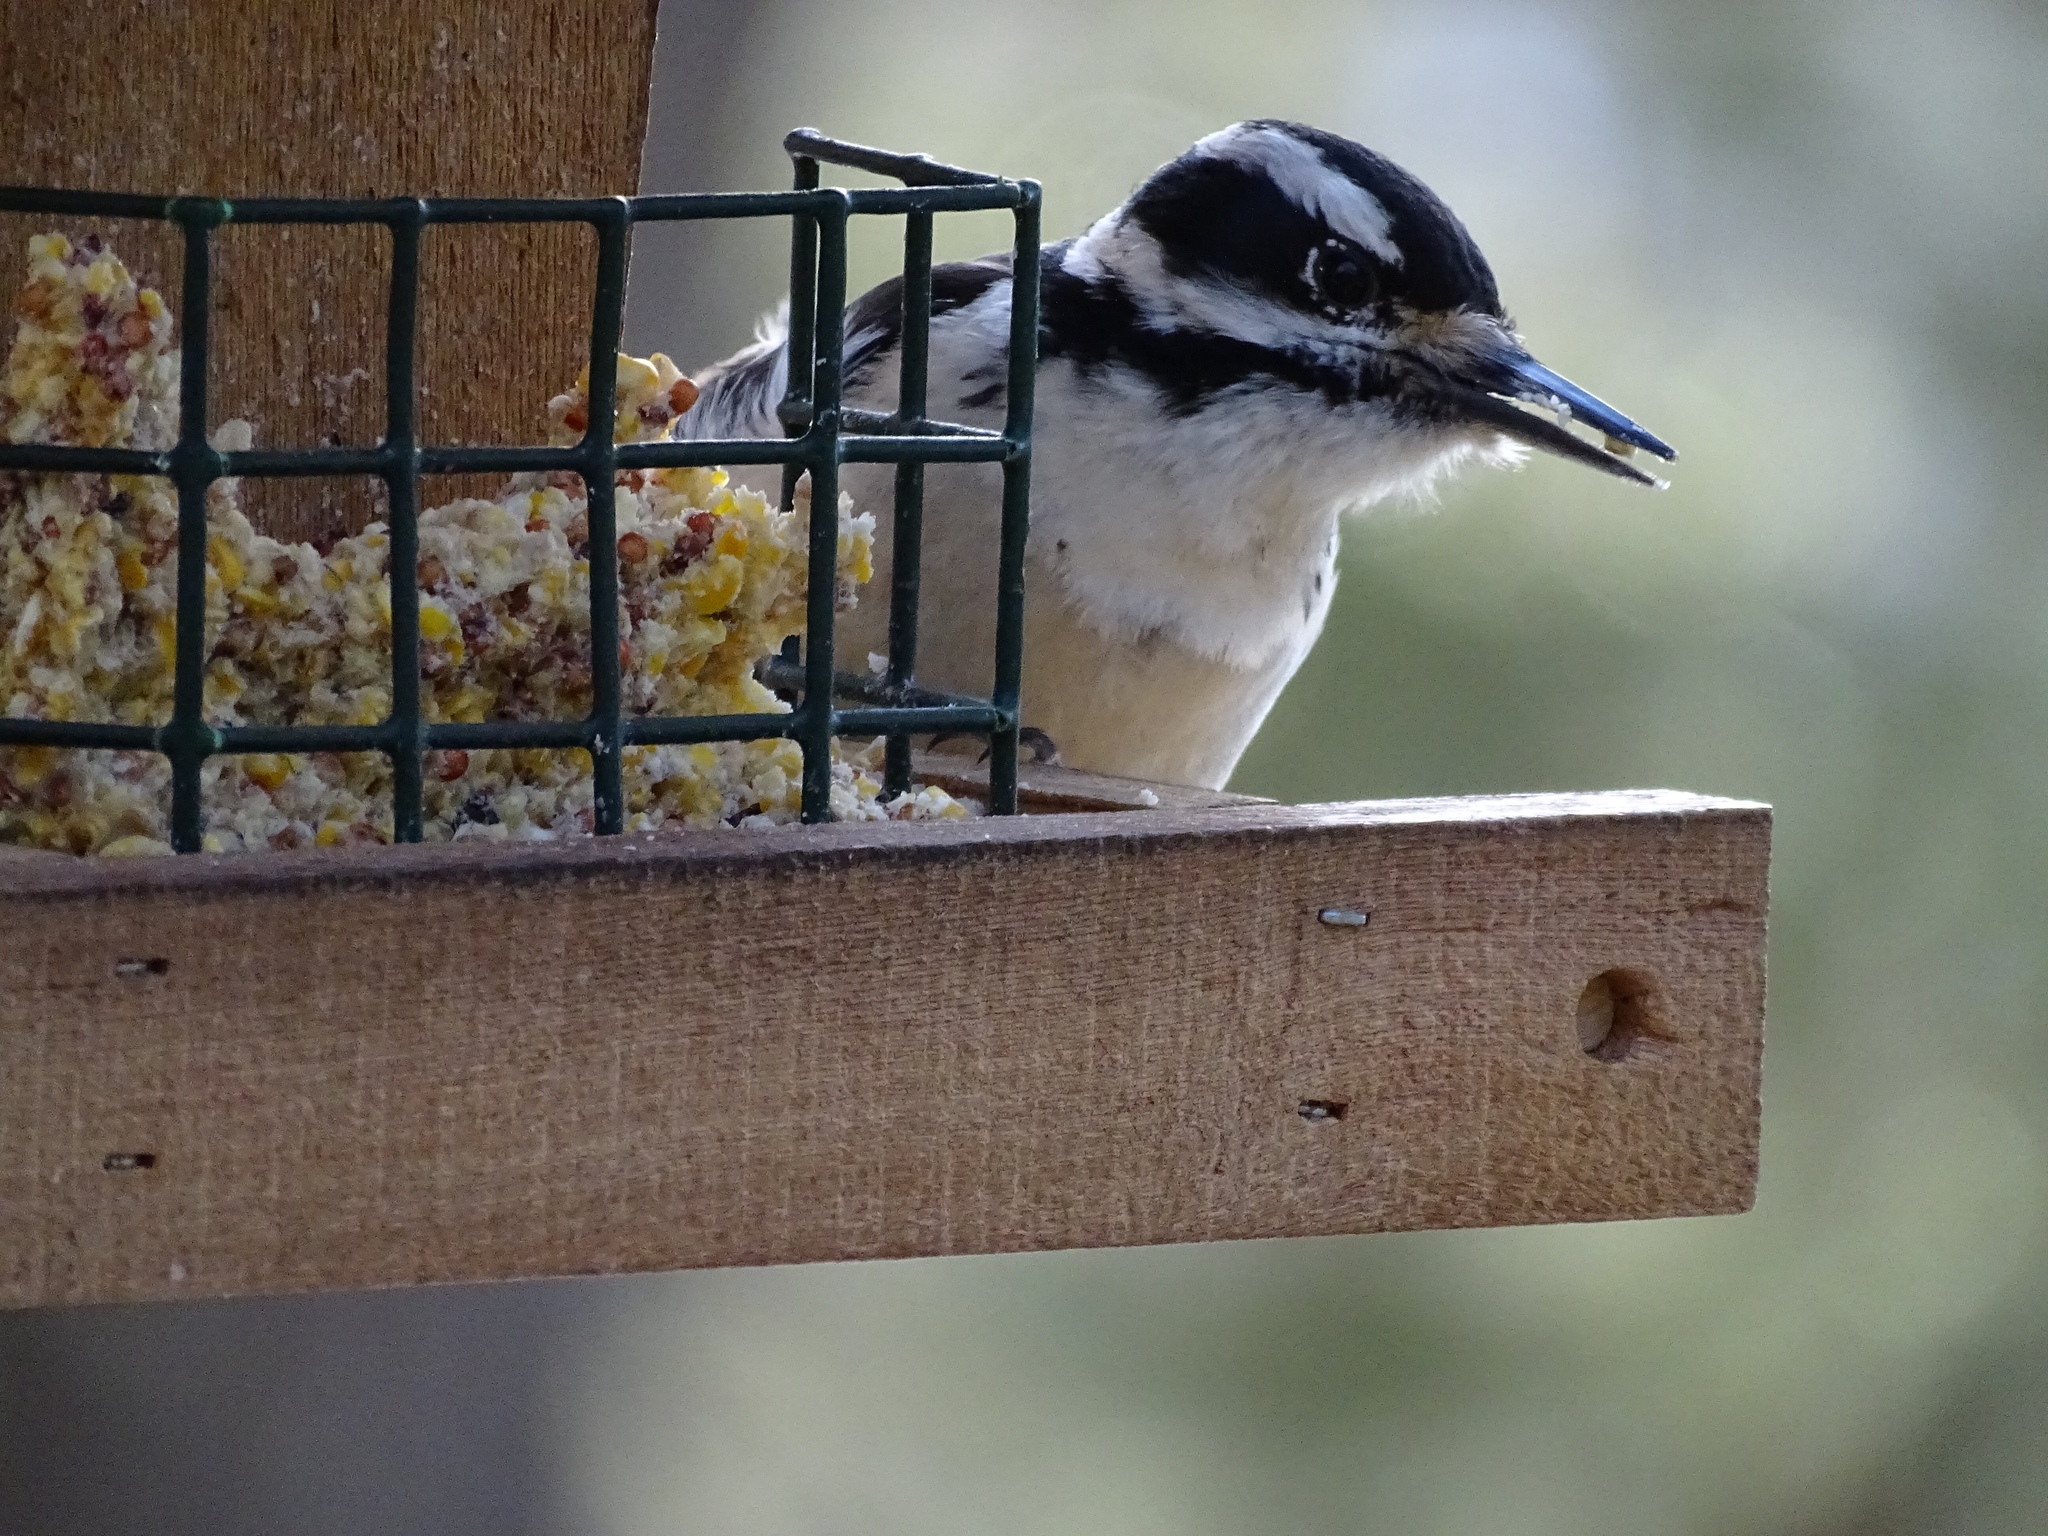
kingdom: Animalia
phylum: Chordata
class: Aves
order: Piciformes
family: Picidae
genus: Leuconotopicus
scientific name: Leuconotopicus villosus
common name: Hairy woodpecker
